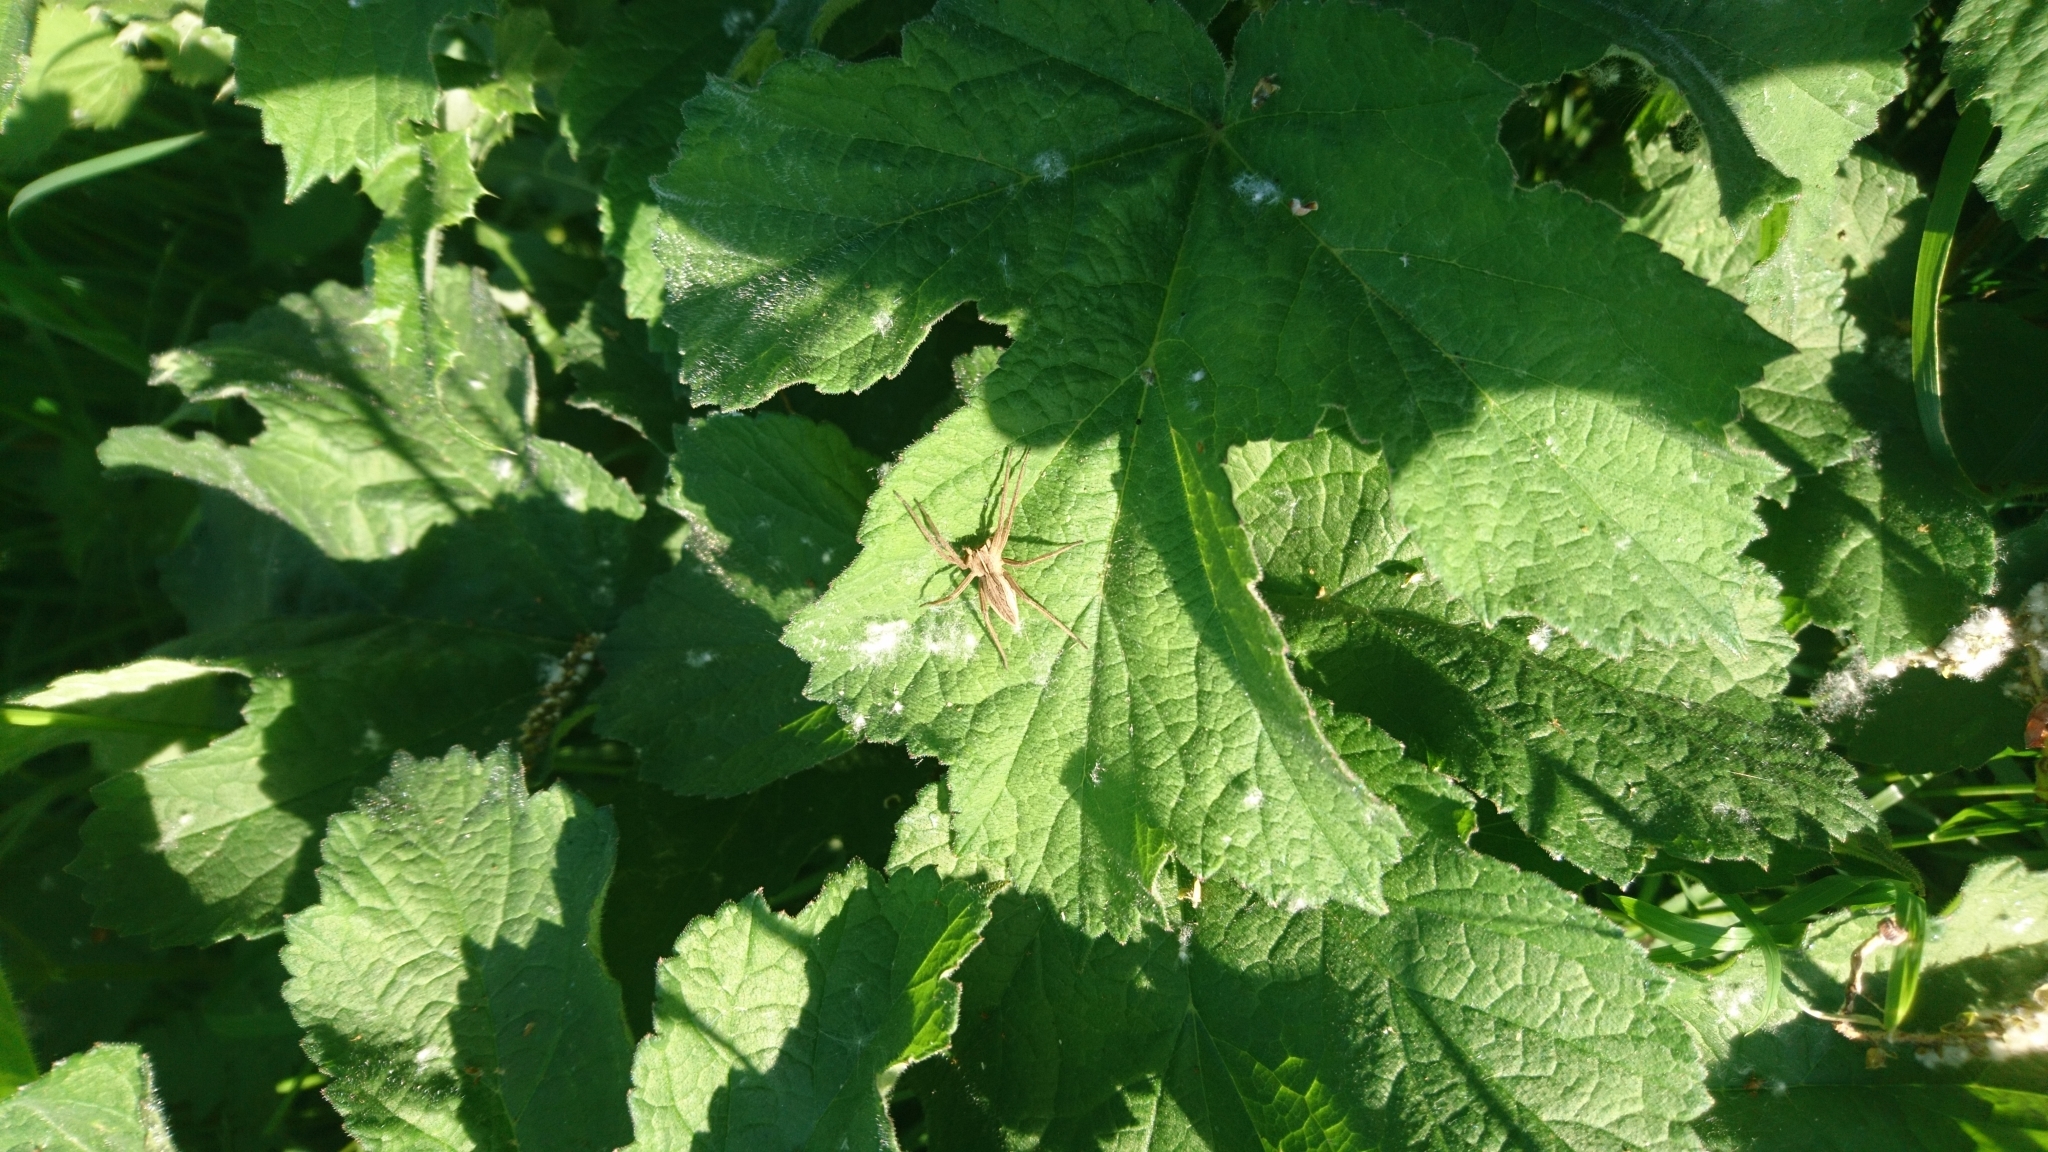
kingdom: Animalia
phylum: Arthropoda
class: Arachnida
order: Araneae
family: Pisauridae
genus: Pisaura
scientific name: Pisaura mirabilis
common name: Tent spider
